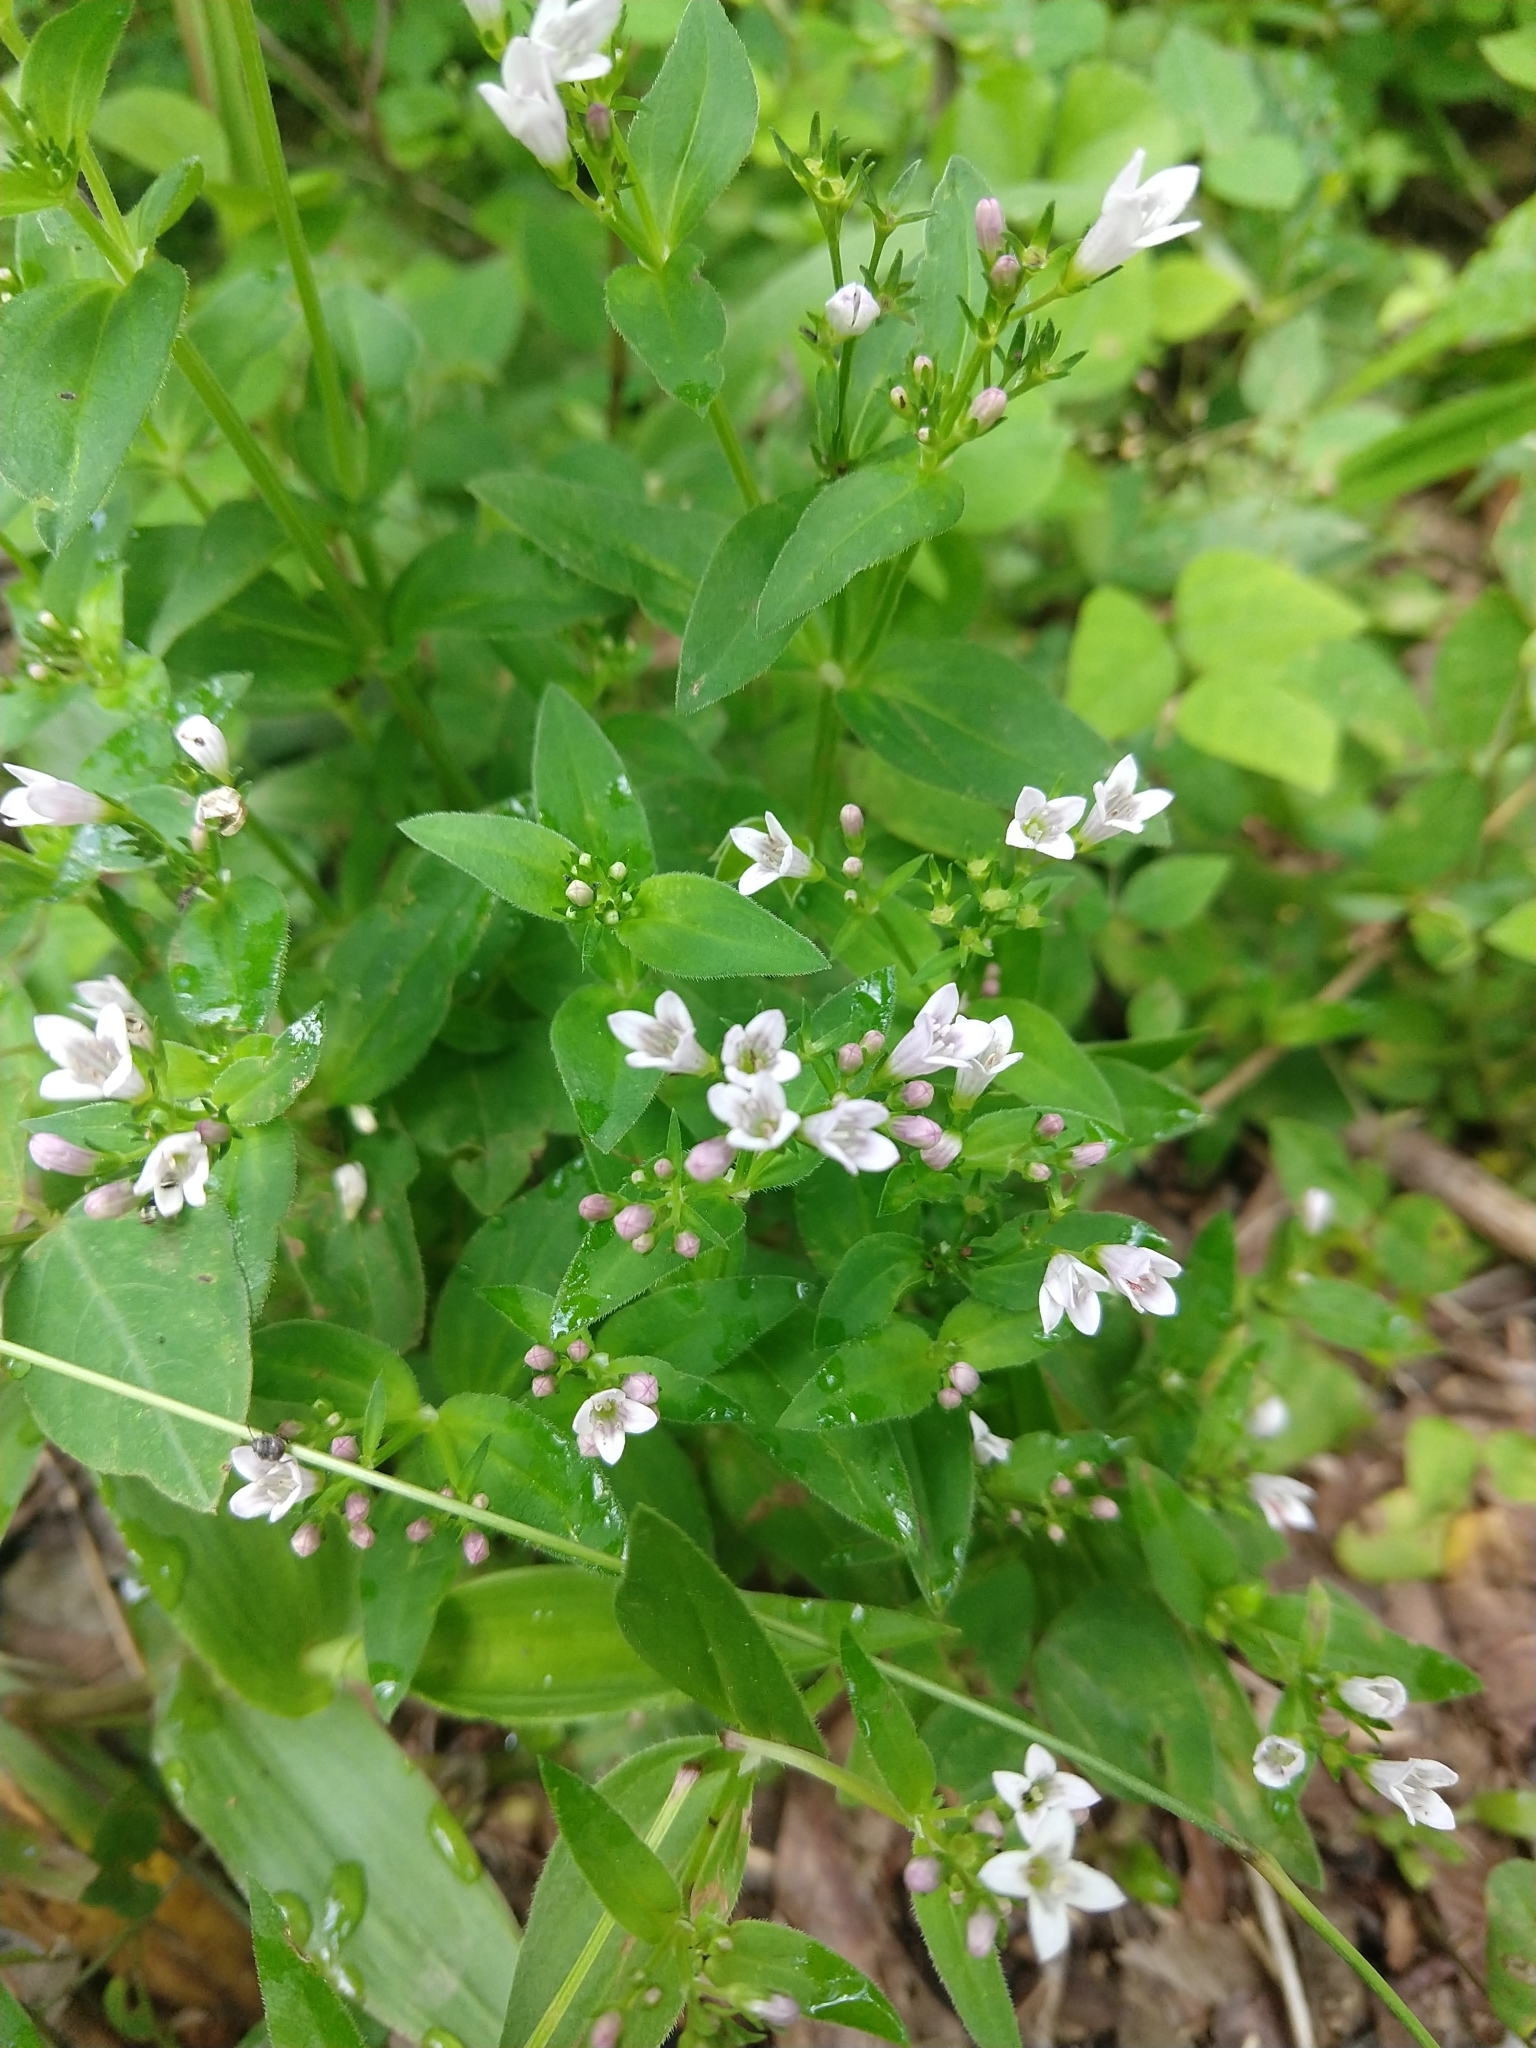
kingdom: Plantae
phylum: Tracheophyta
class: Magnoliopsida
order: Gentianales
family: Rubiaceae
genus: Houstonia
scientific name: Houstonia purpurea
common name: Summer bluet
